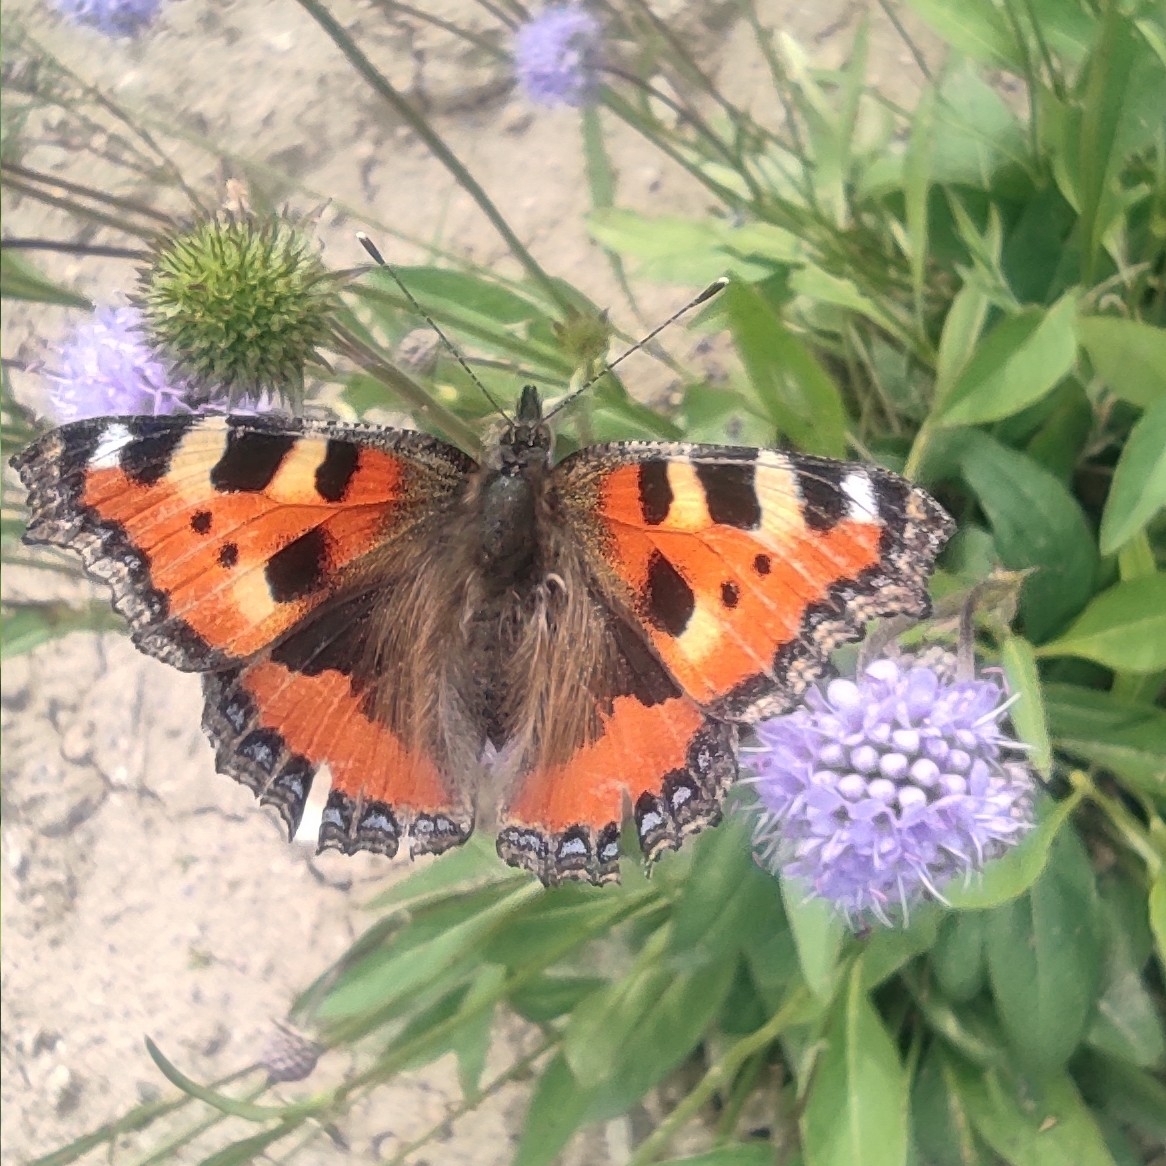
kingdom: Animalia
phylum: Arthropoda
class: Insecta
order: Lepidoptera
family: Nymphalidae
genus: Aglais
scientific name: Aglais urticae
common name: Small tortoiseshell
